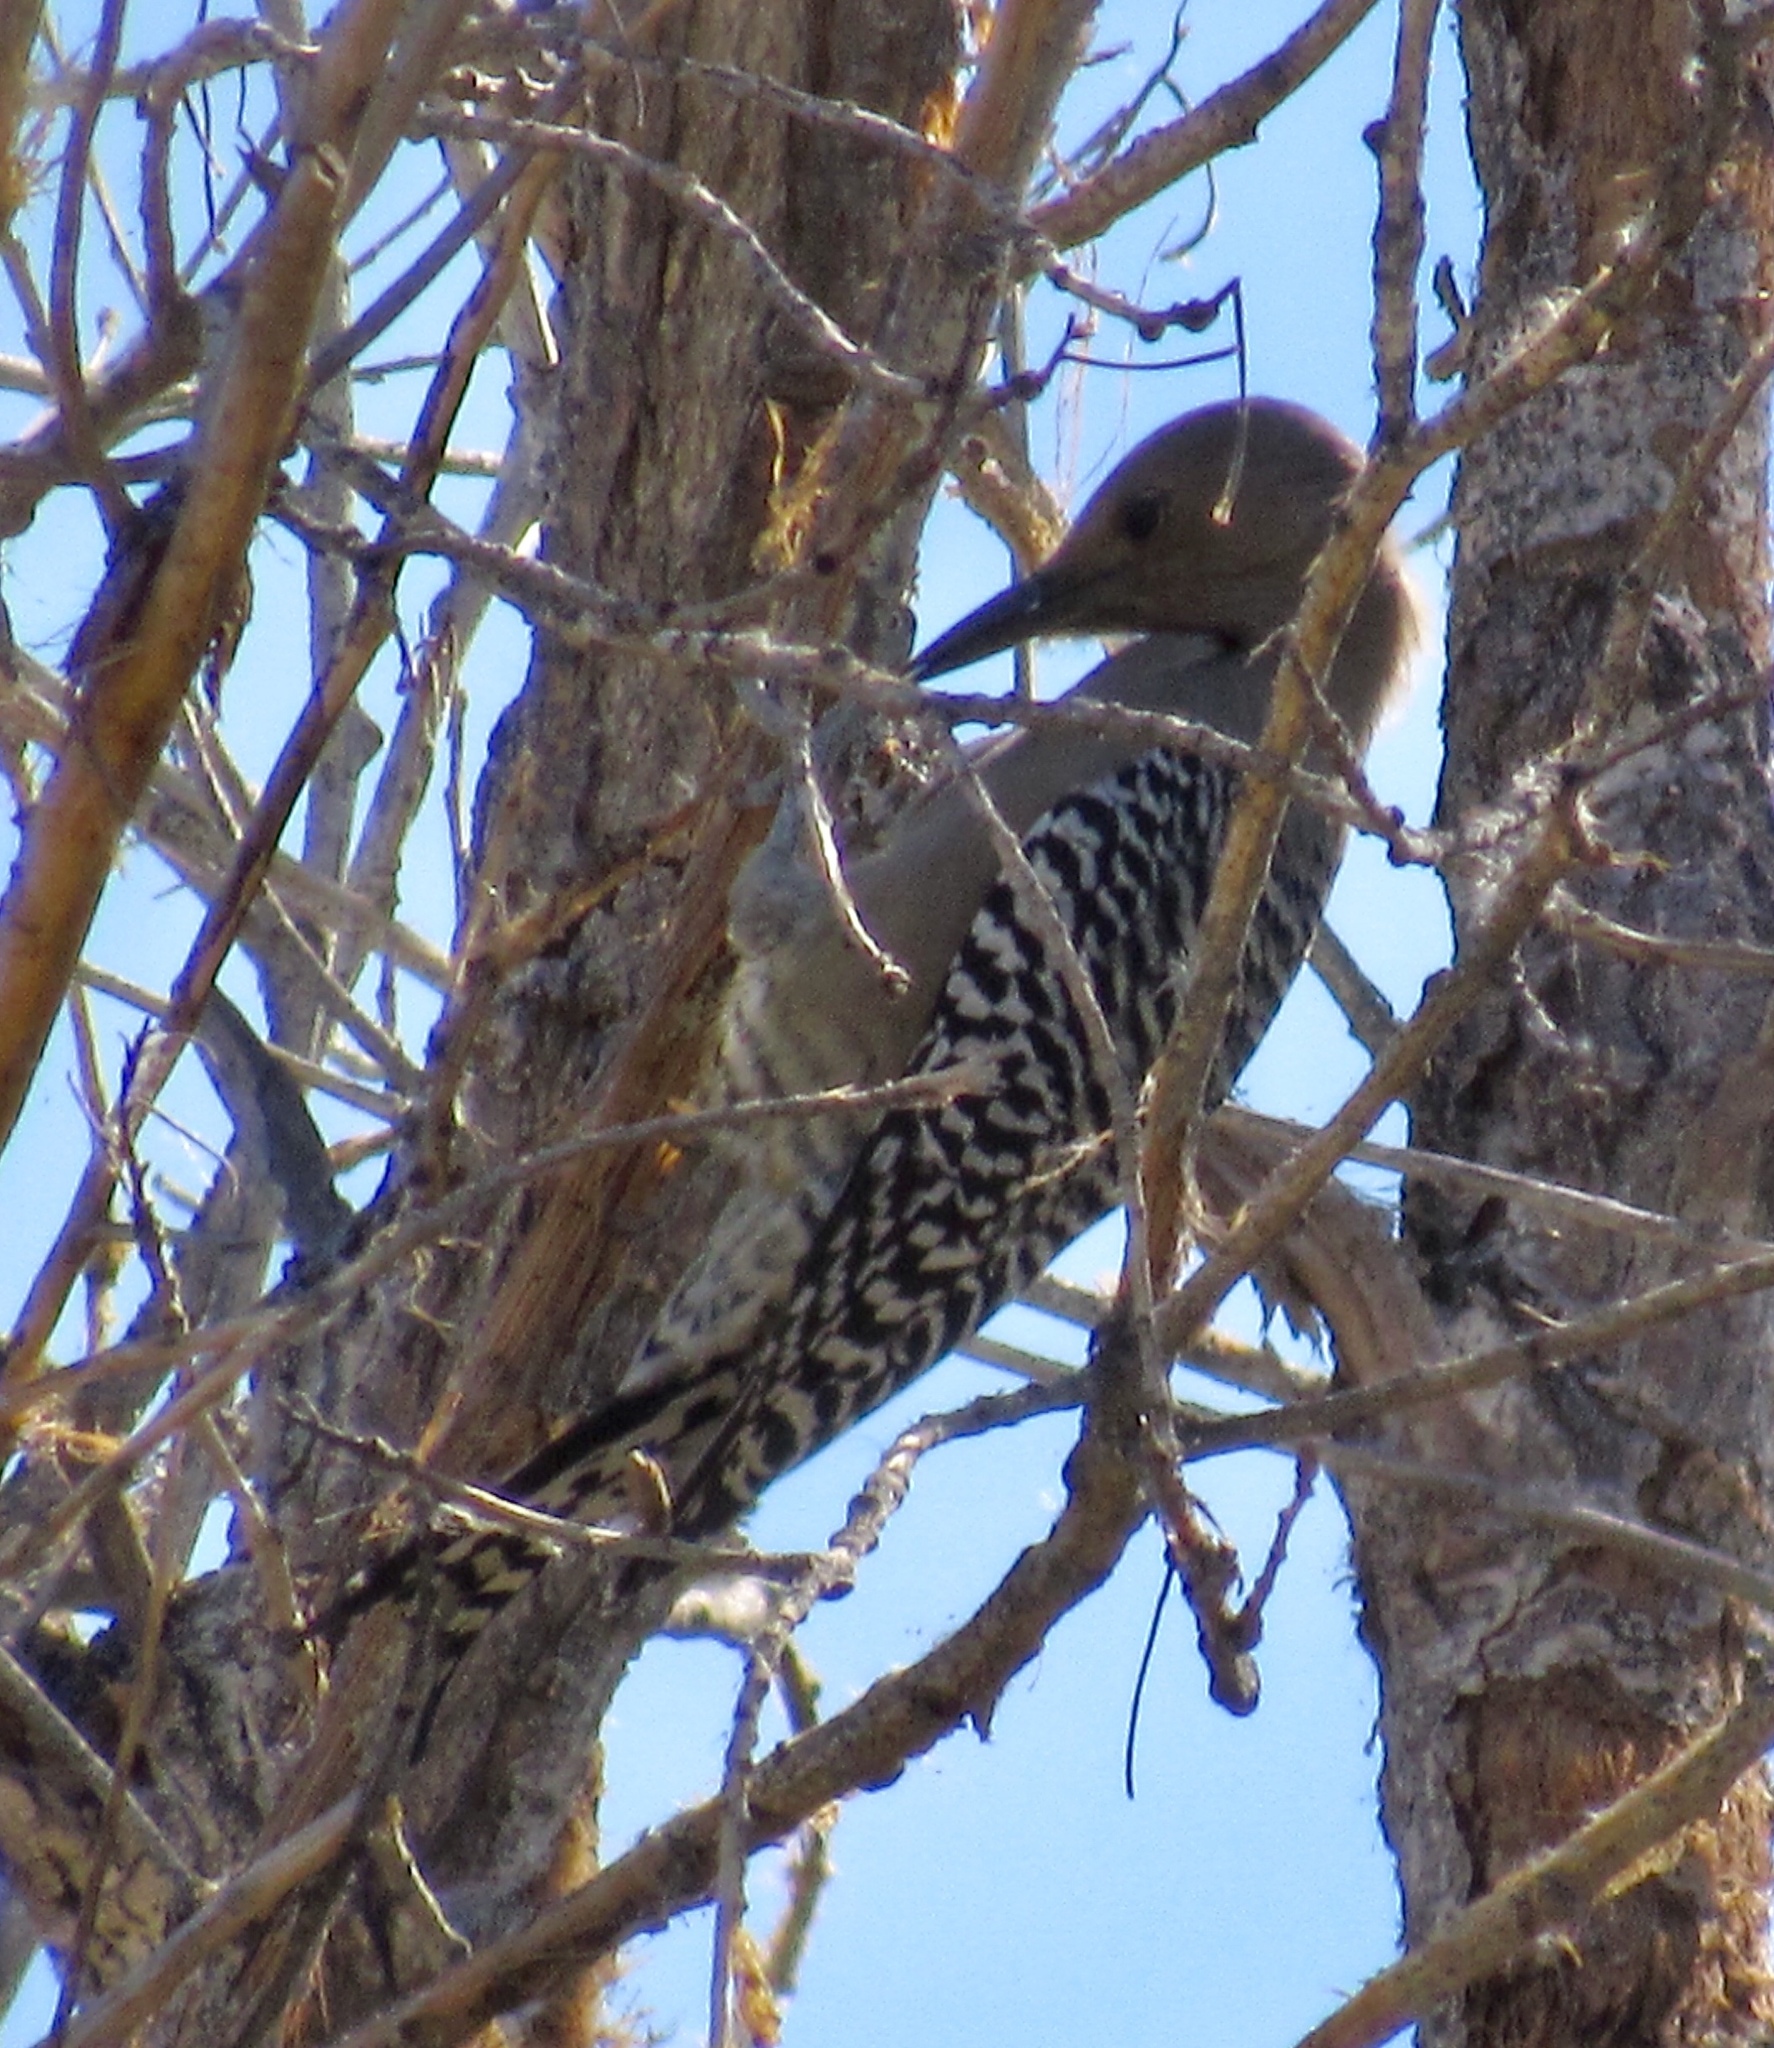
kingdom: Animalia
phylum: Chordata
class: Aves
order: Piciformes
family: Picidae
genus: Melanerpes
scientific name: Melanerpes uropygialis
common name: Gila woodpecker
